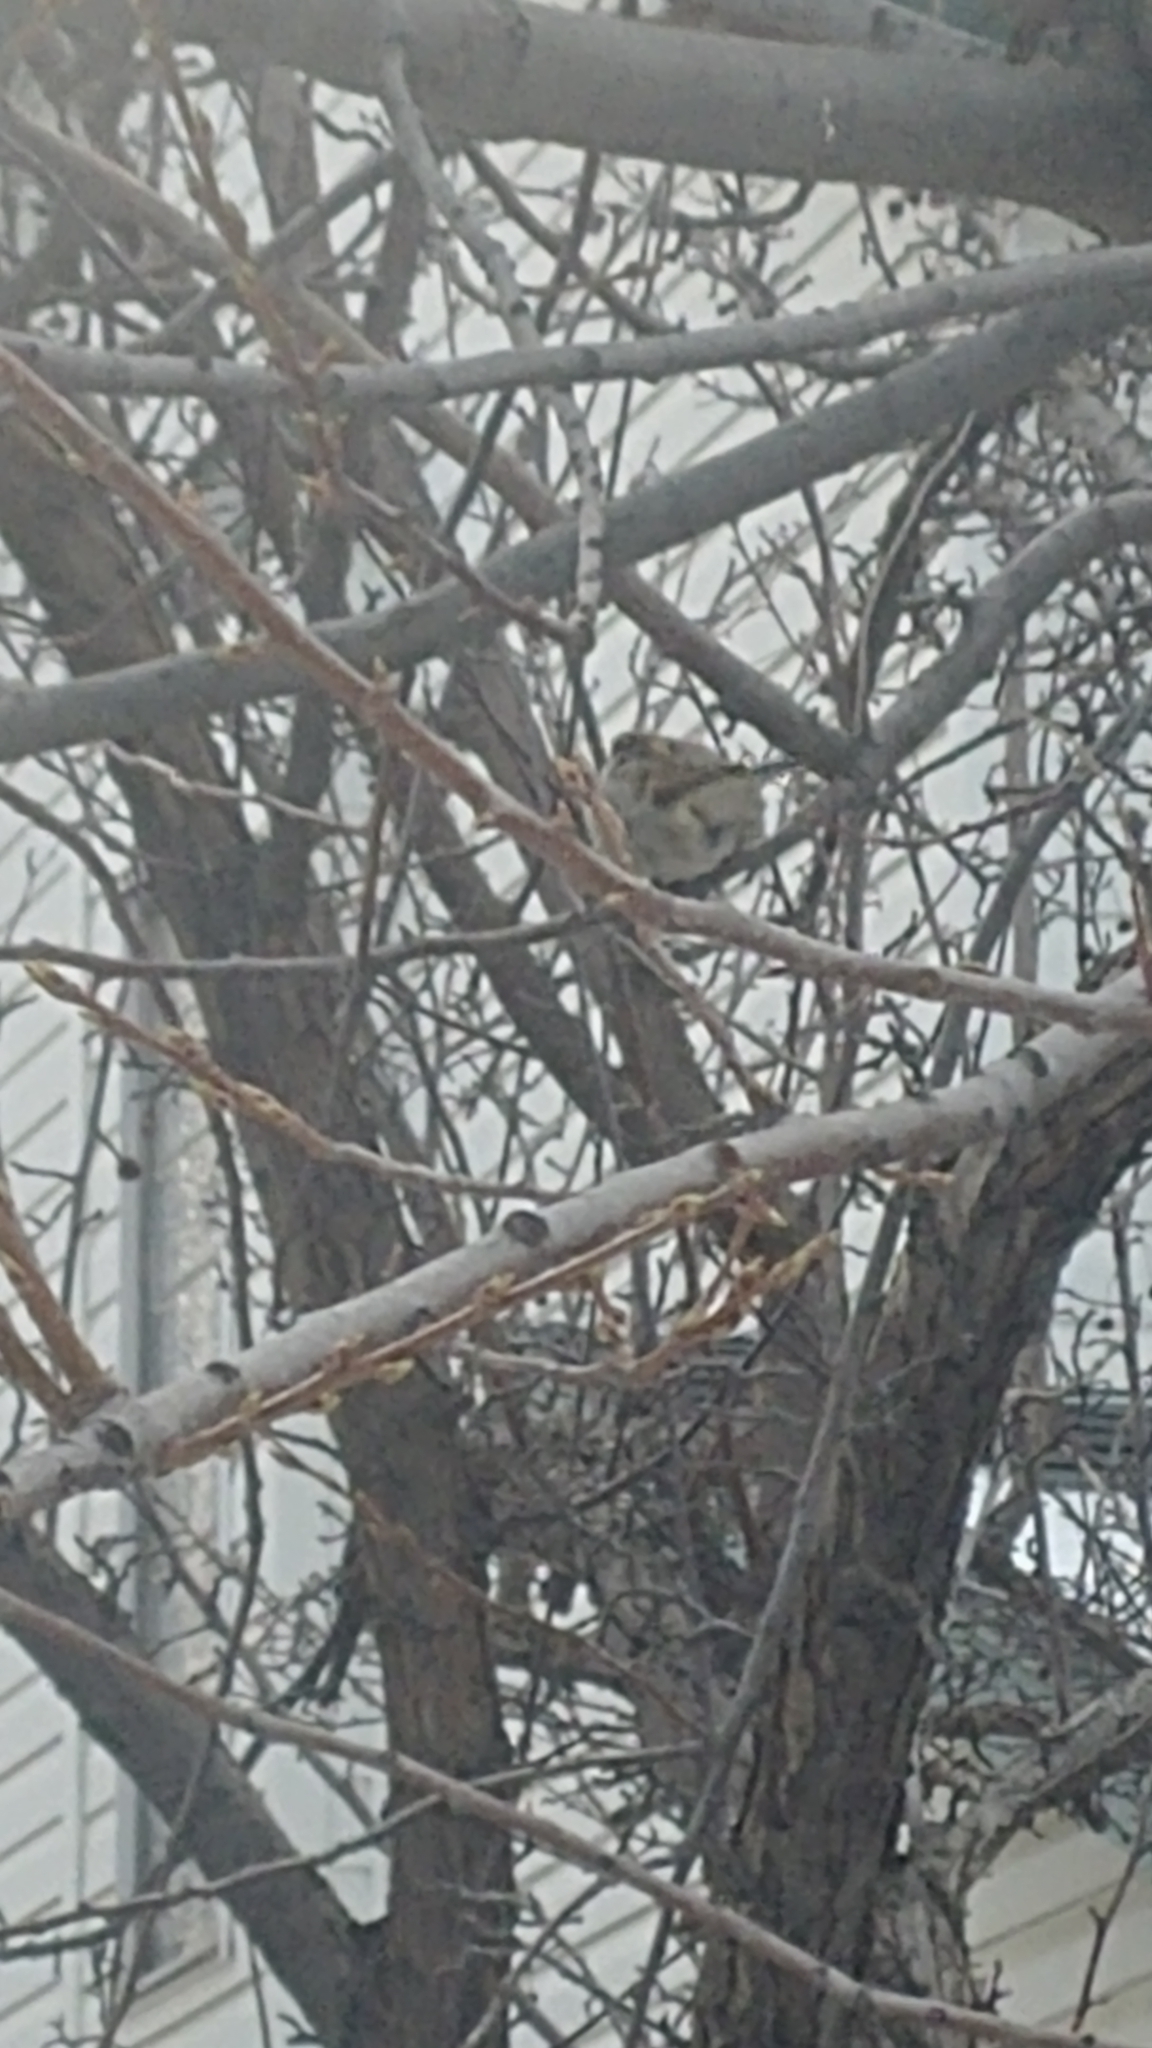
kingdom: Animalia
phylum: Chordata
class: Aves
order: Passeriformes
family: Passeridae
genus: Passer
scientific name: Passer domesticus
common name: House sparrow
